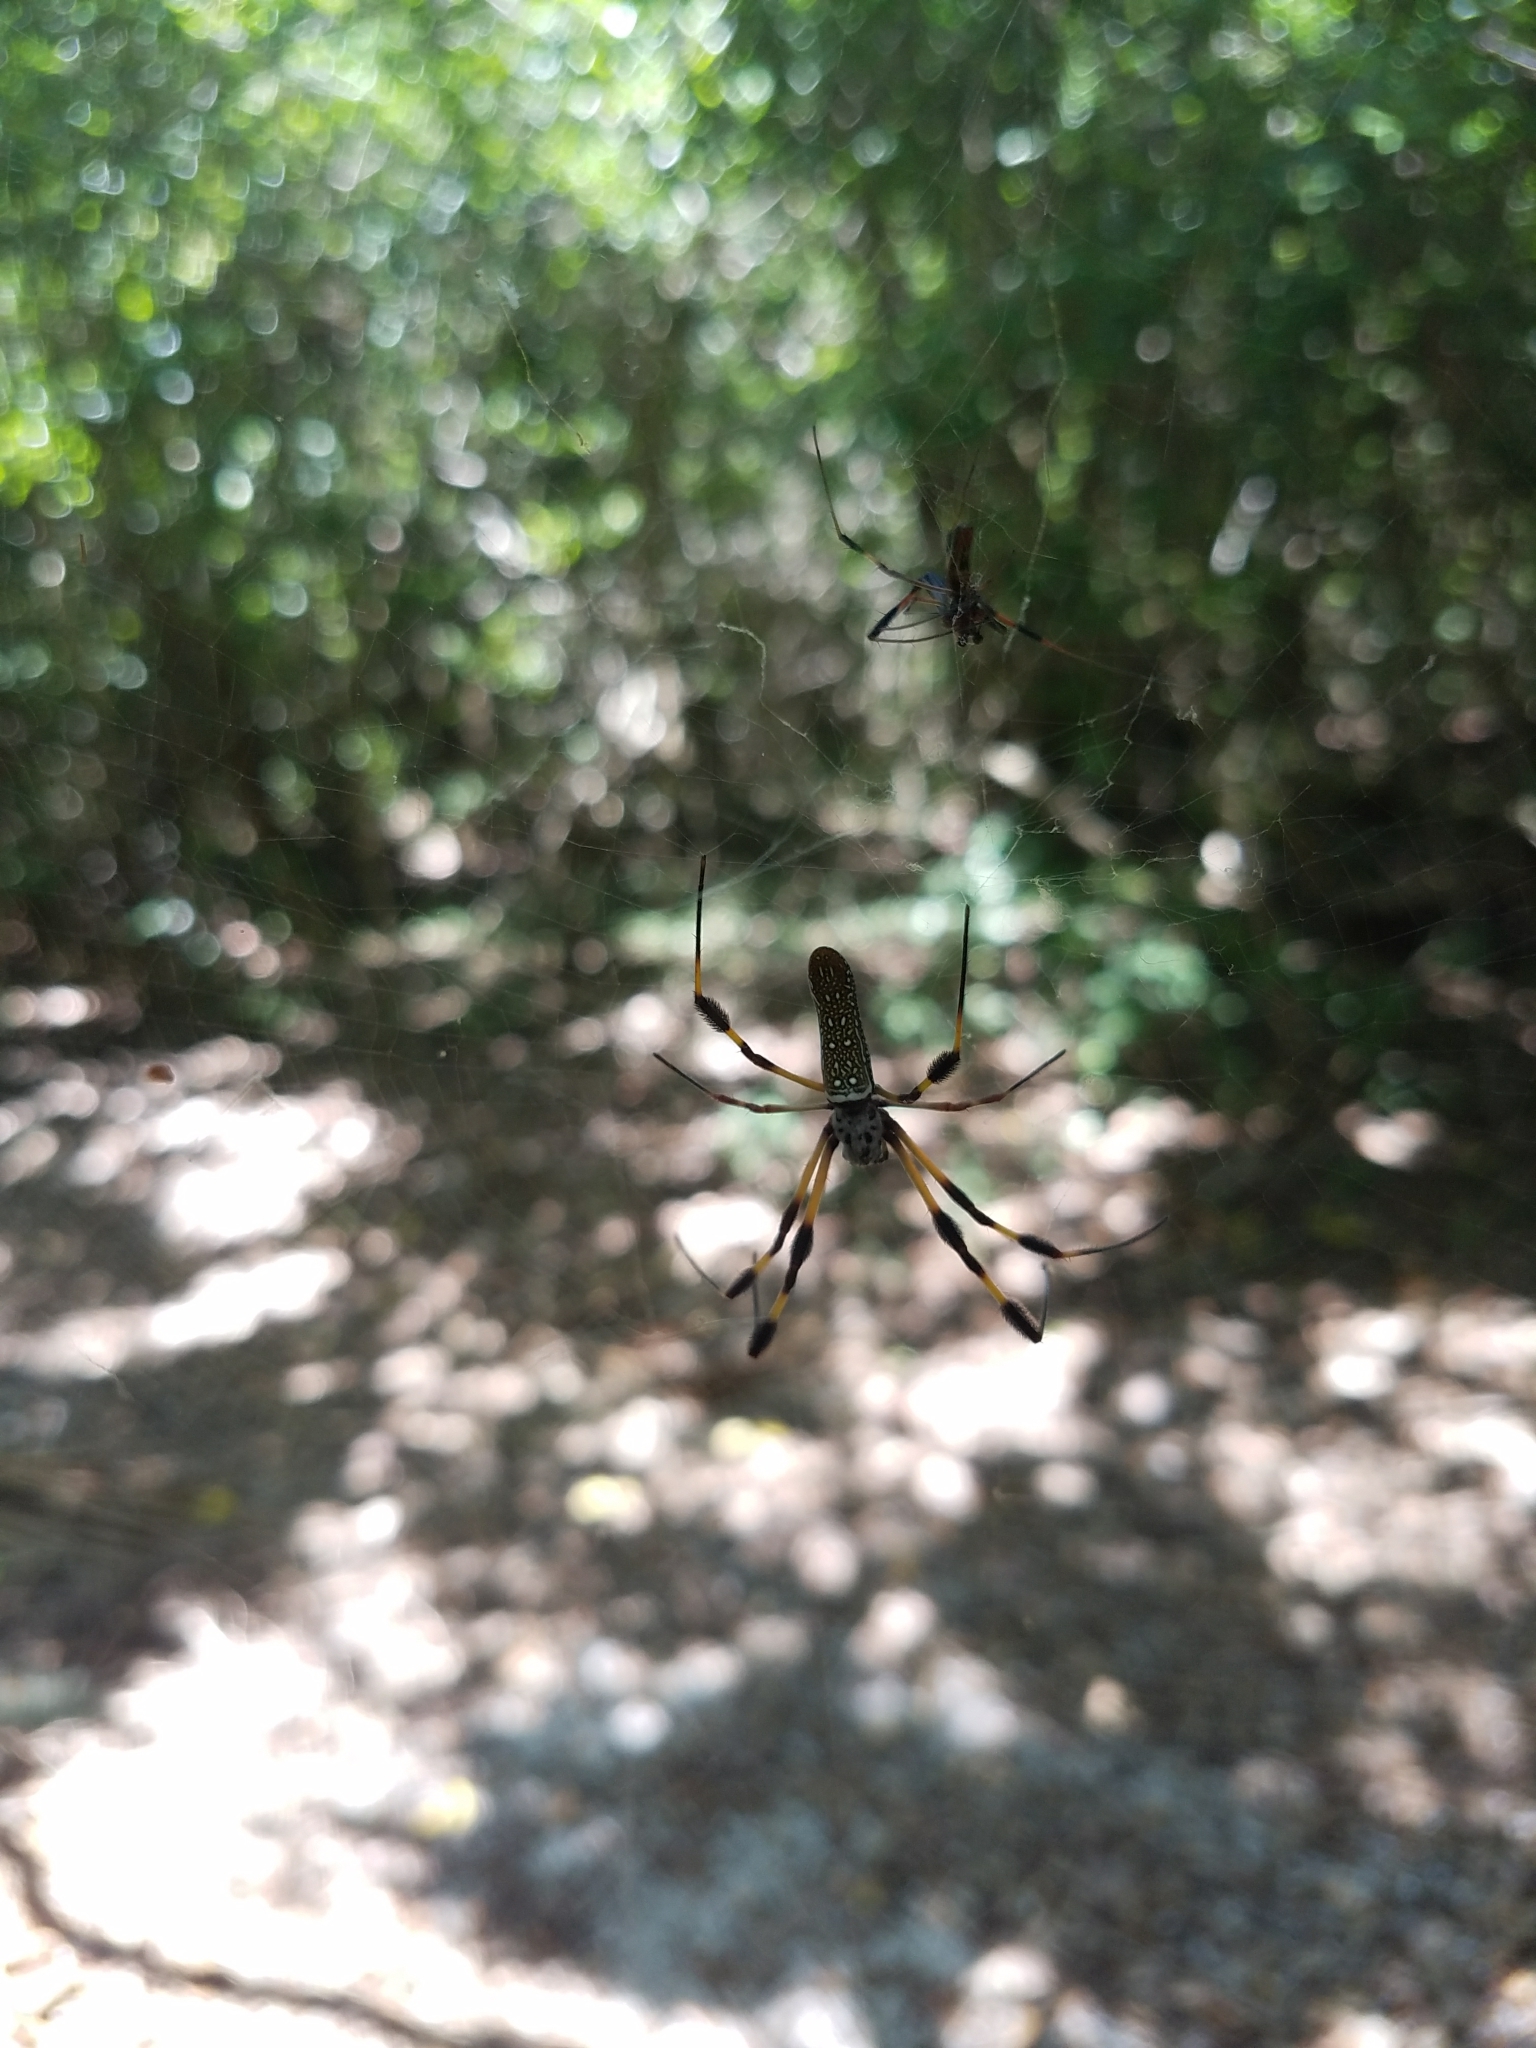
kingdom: Animalia
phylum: Arthropoda
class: Arachnida
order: Araneae
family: Araneidae
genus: Trichonephila
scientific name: Trichonephila clavipes
